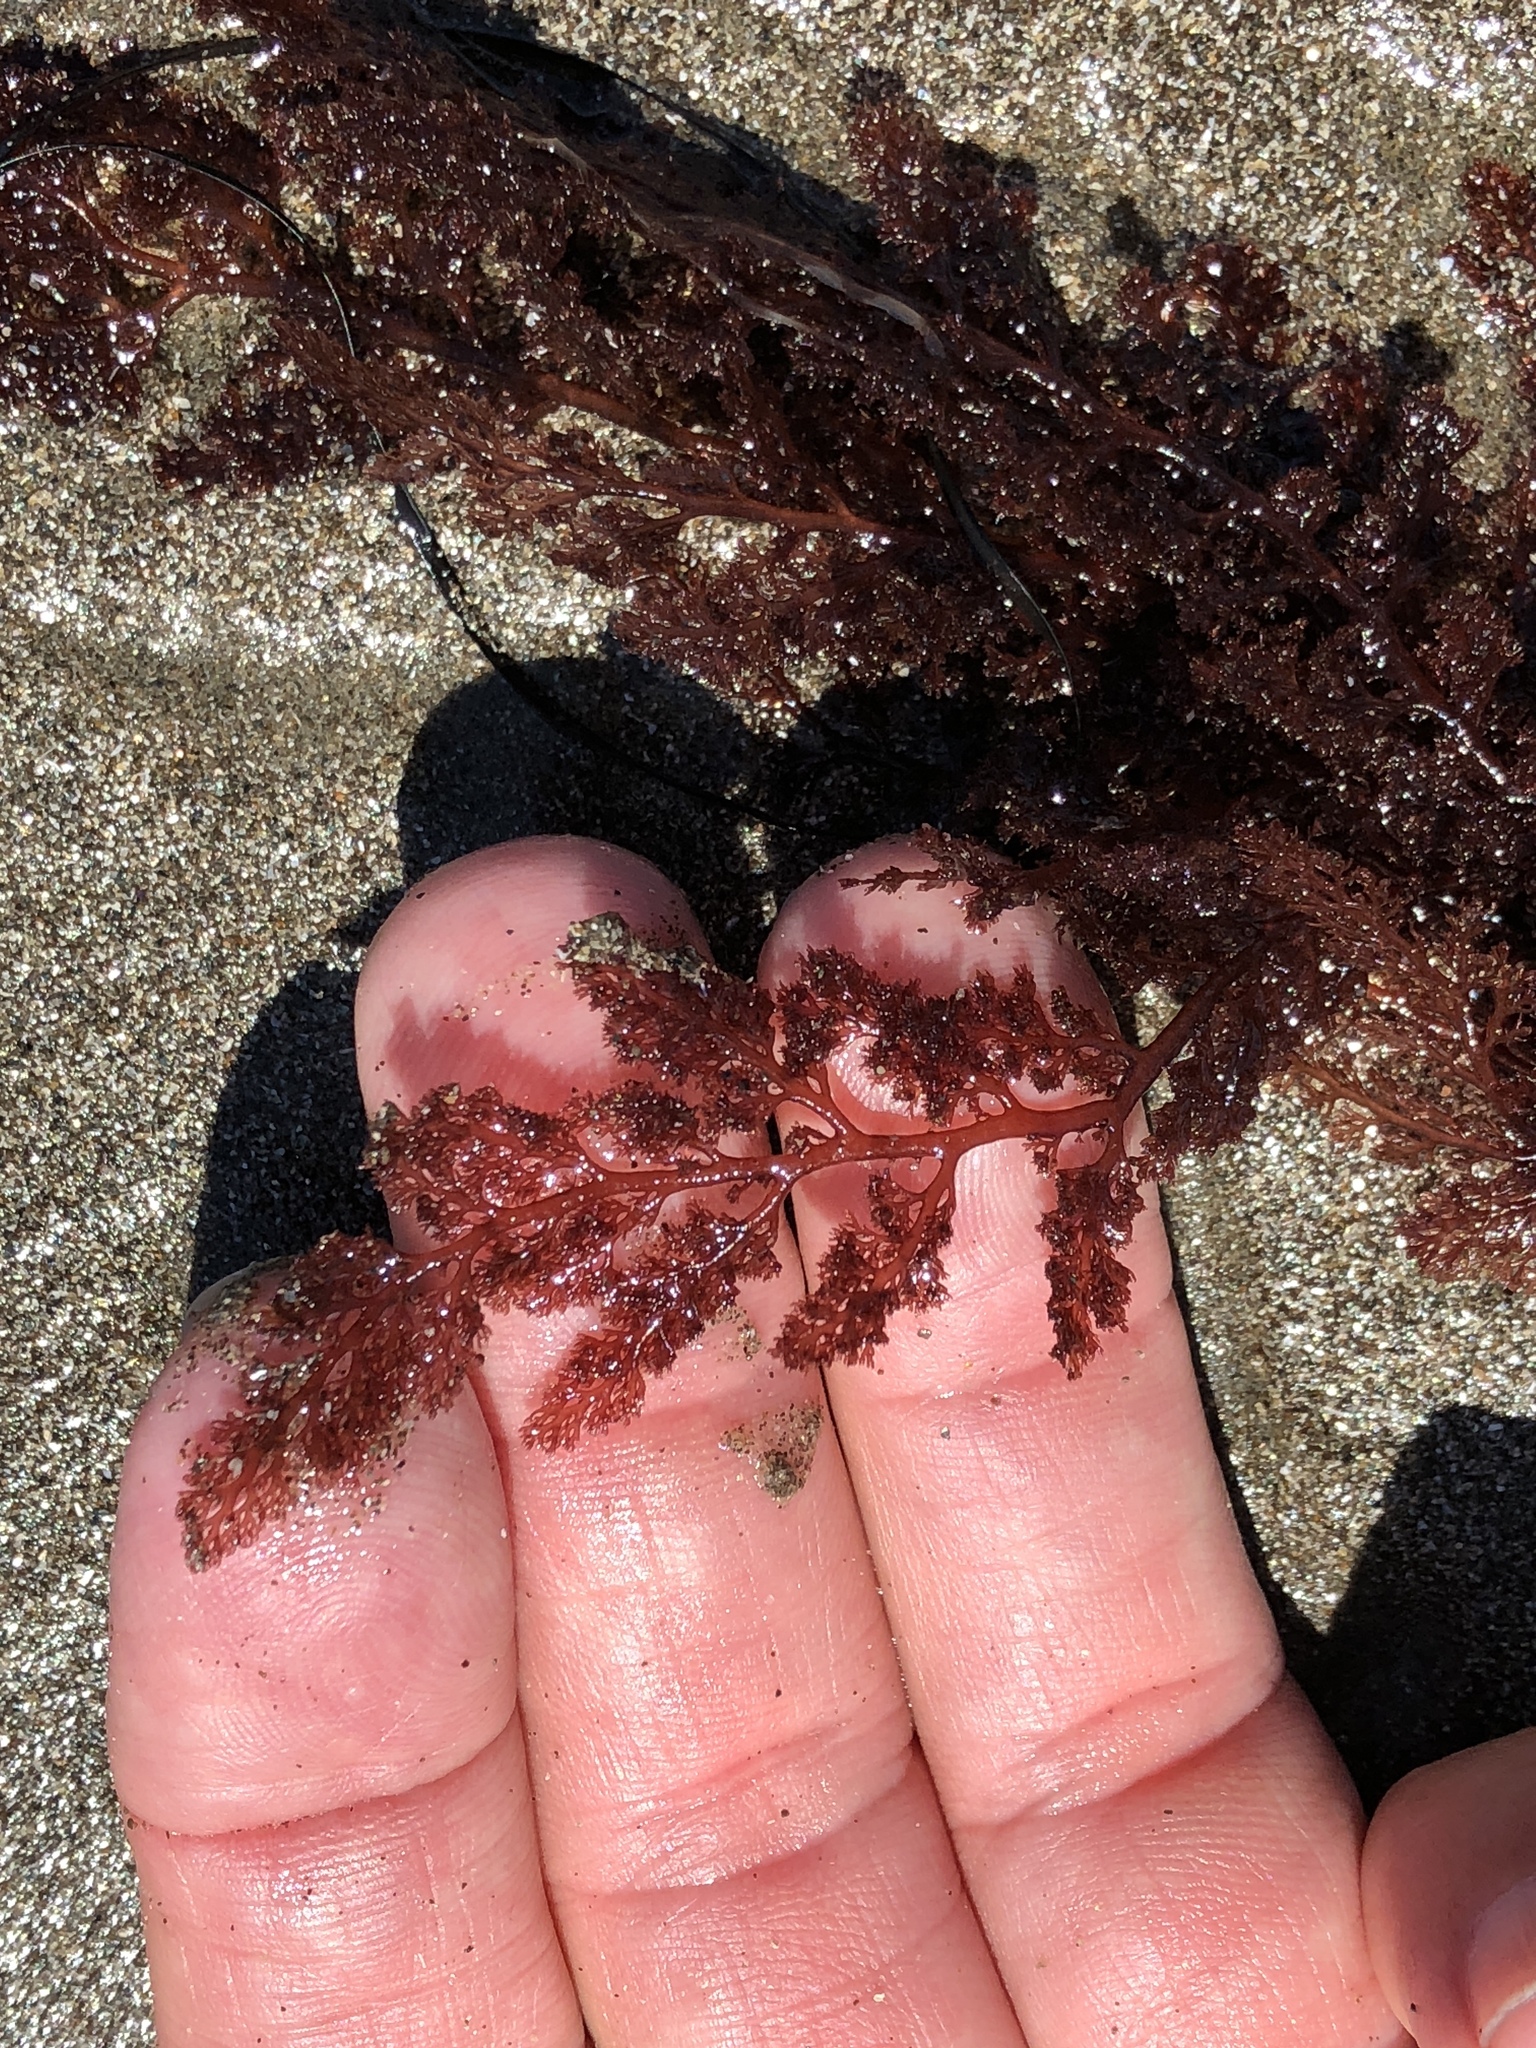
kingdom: Plantae
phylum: Rhodophyta
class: Florideophyceae
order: Ceramiales
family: Ceramiaceae
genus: Microcladia
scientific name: Microcladia coulteri
